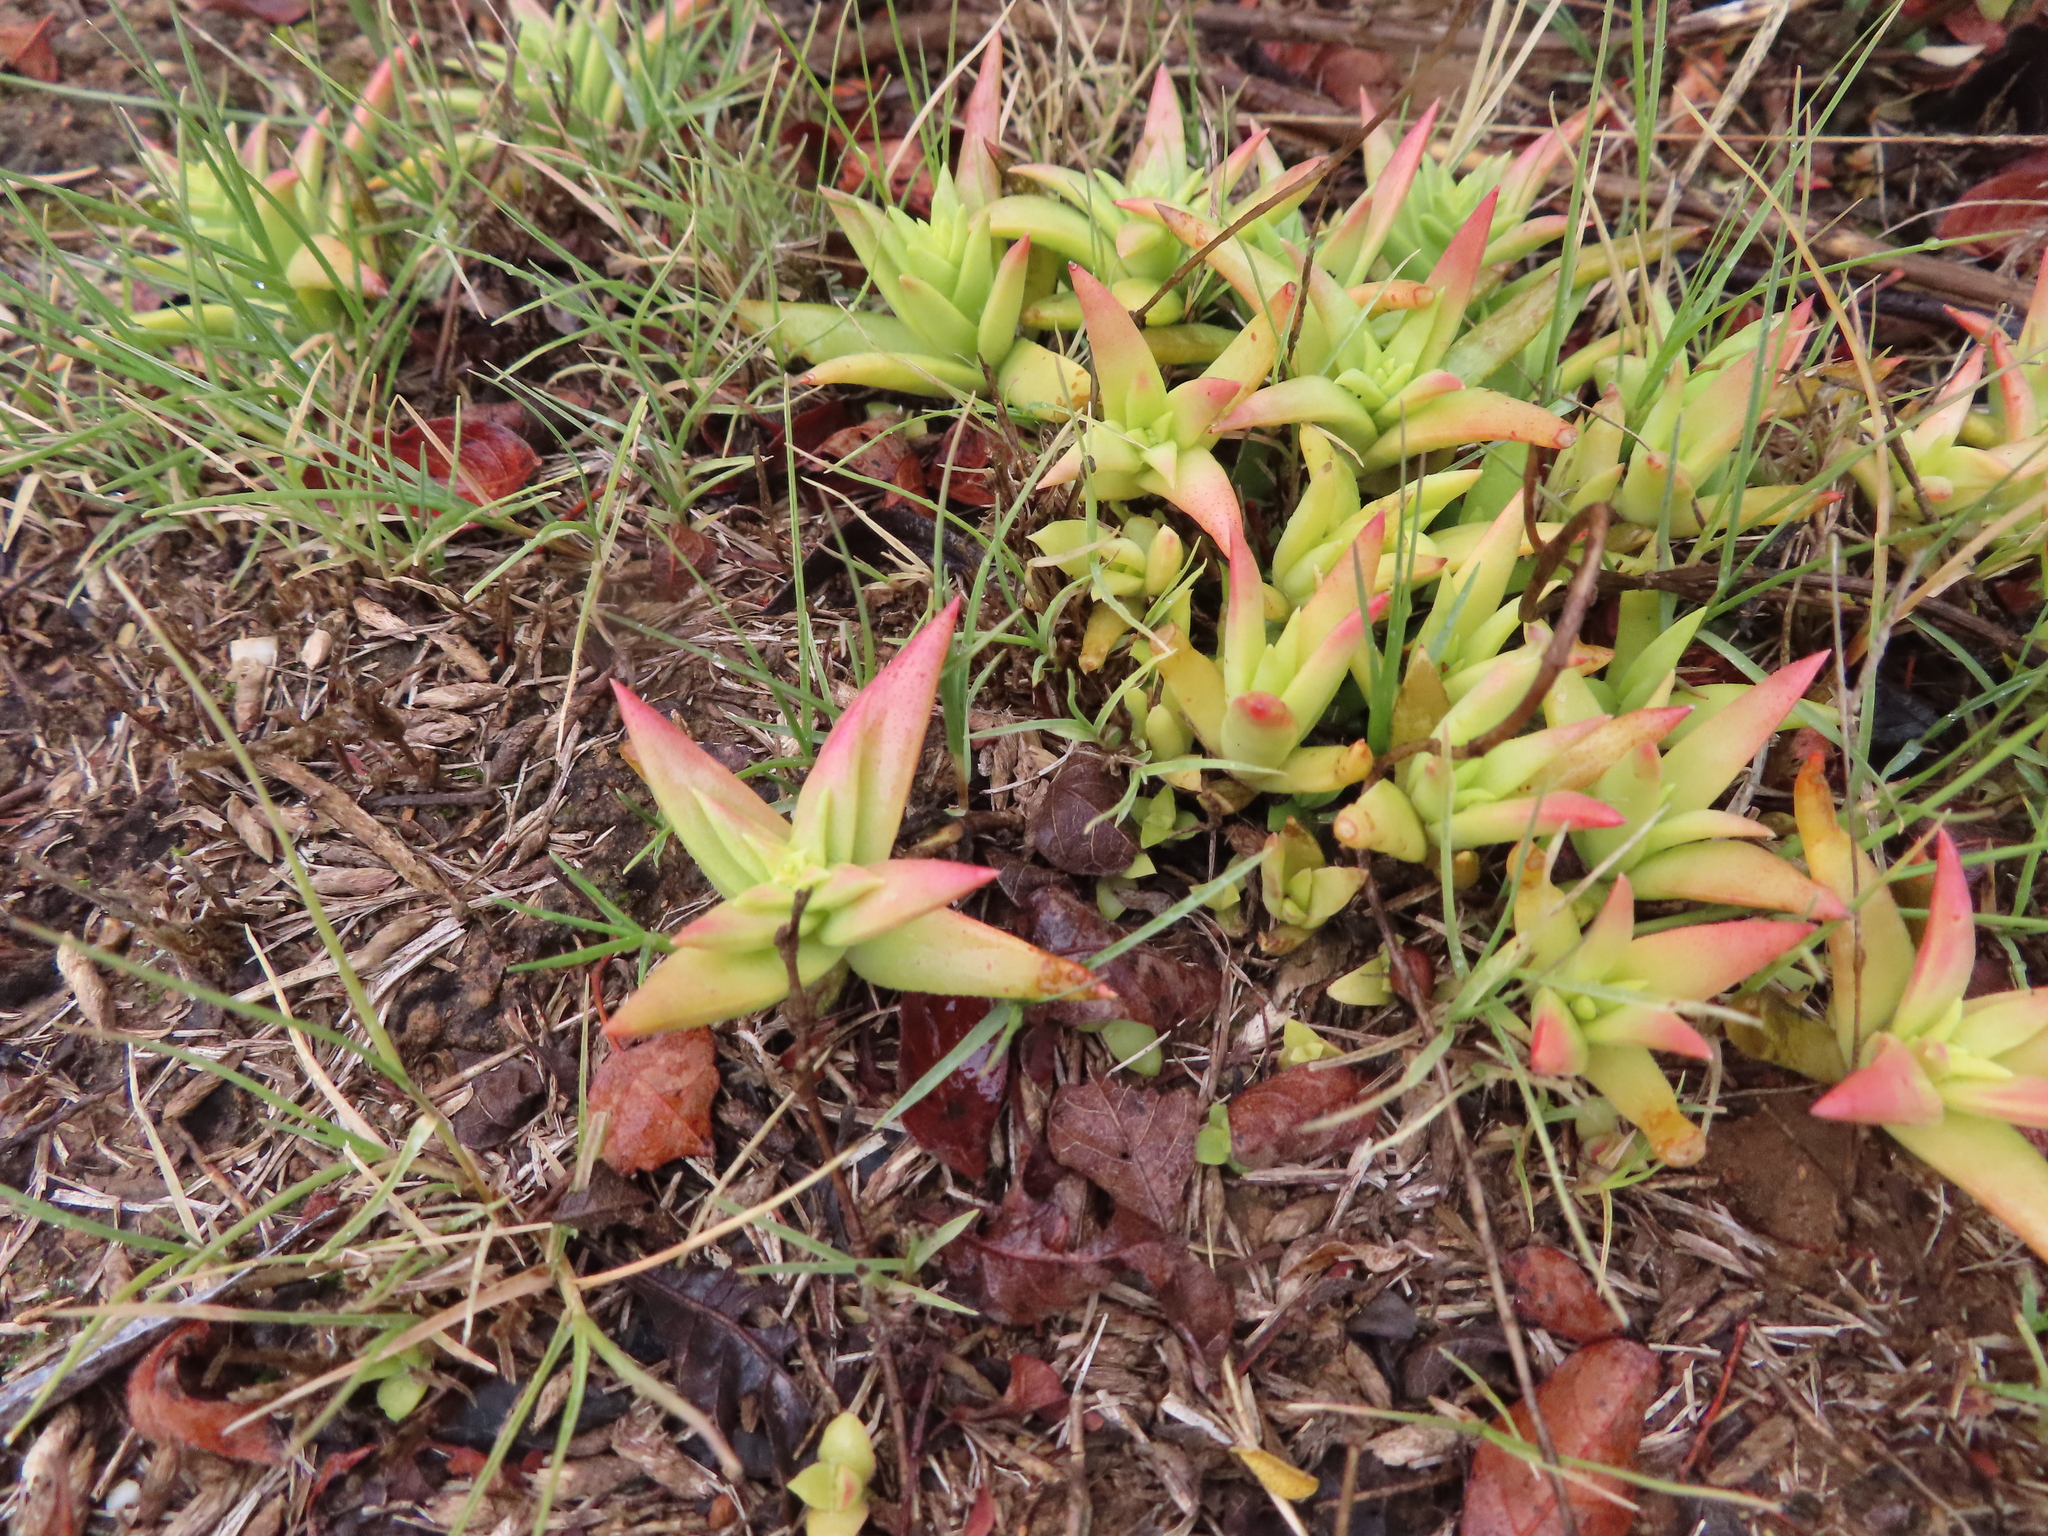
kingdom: Plantae
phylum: Tracheophyta
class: Magnoliopsida
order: Saxifragales
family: Crassulaceae
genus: Crassula
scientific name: Crassula capitella
